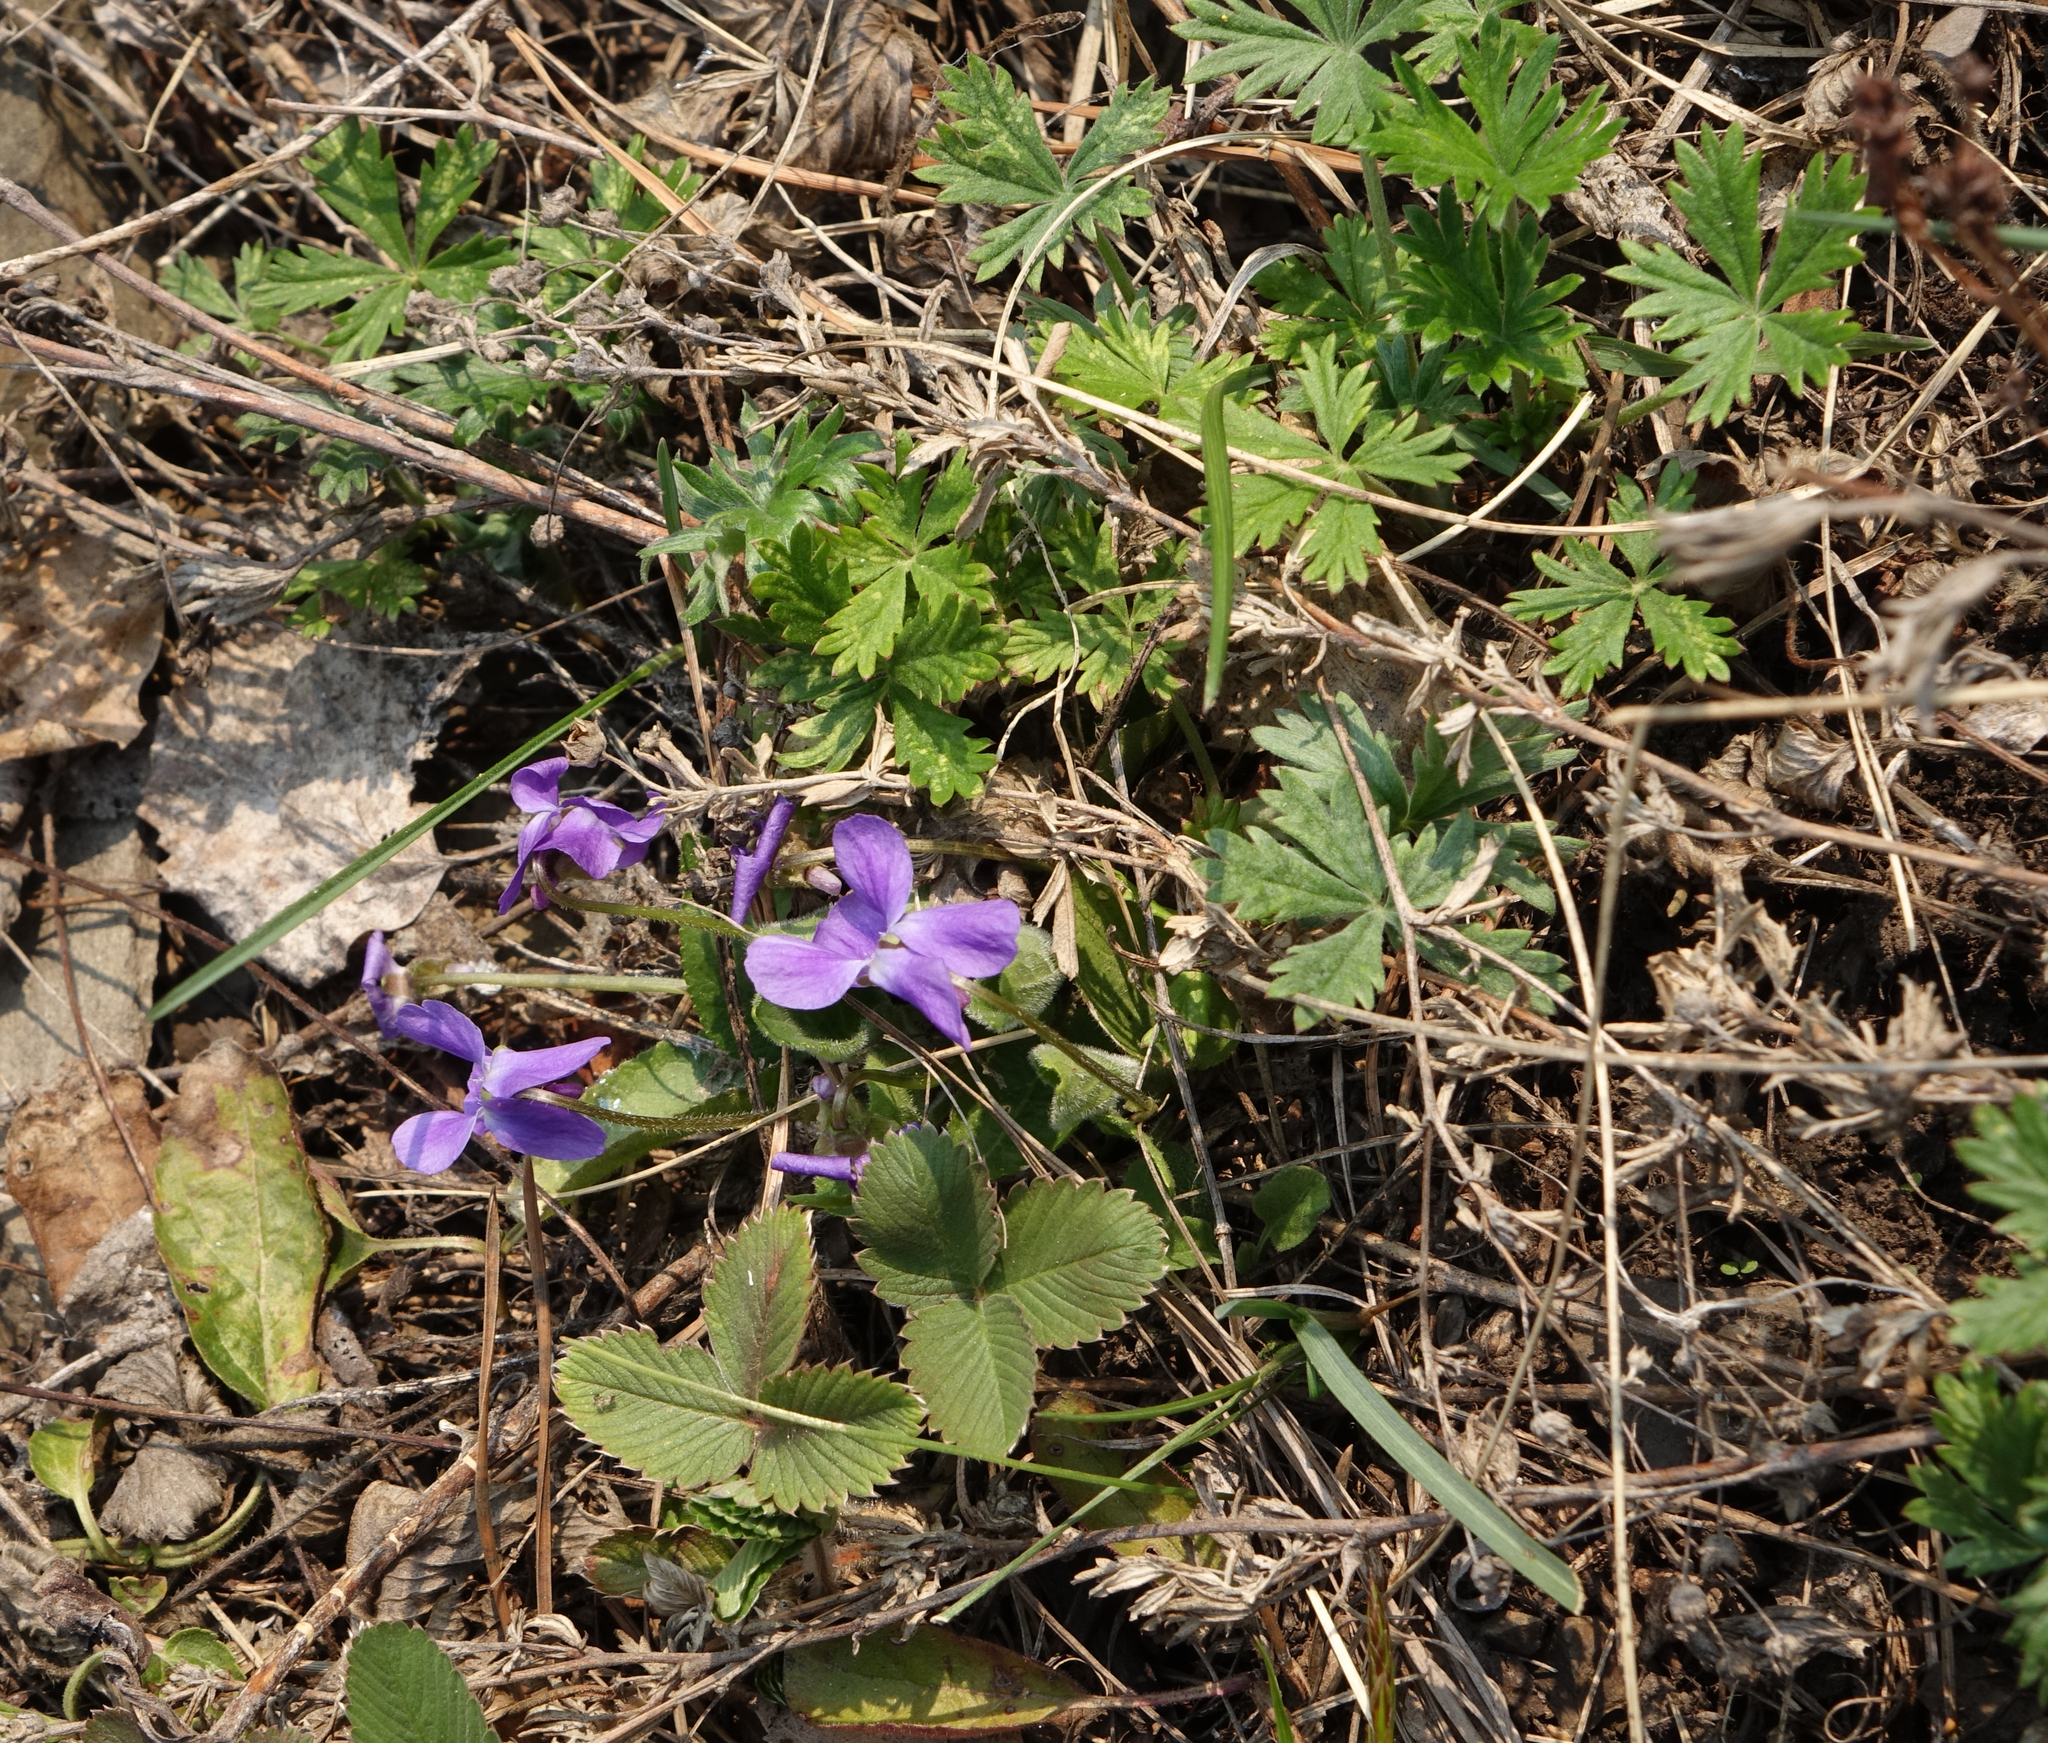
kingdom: Plantae
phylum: Tracheophyta
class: Magnoliopsida
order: Malpighiales
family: Violaceae
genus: Viola
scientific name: Viola hirta
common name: Hairy violet
